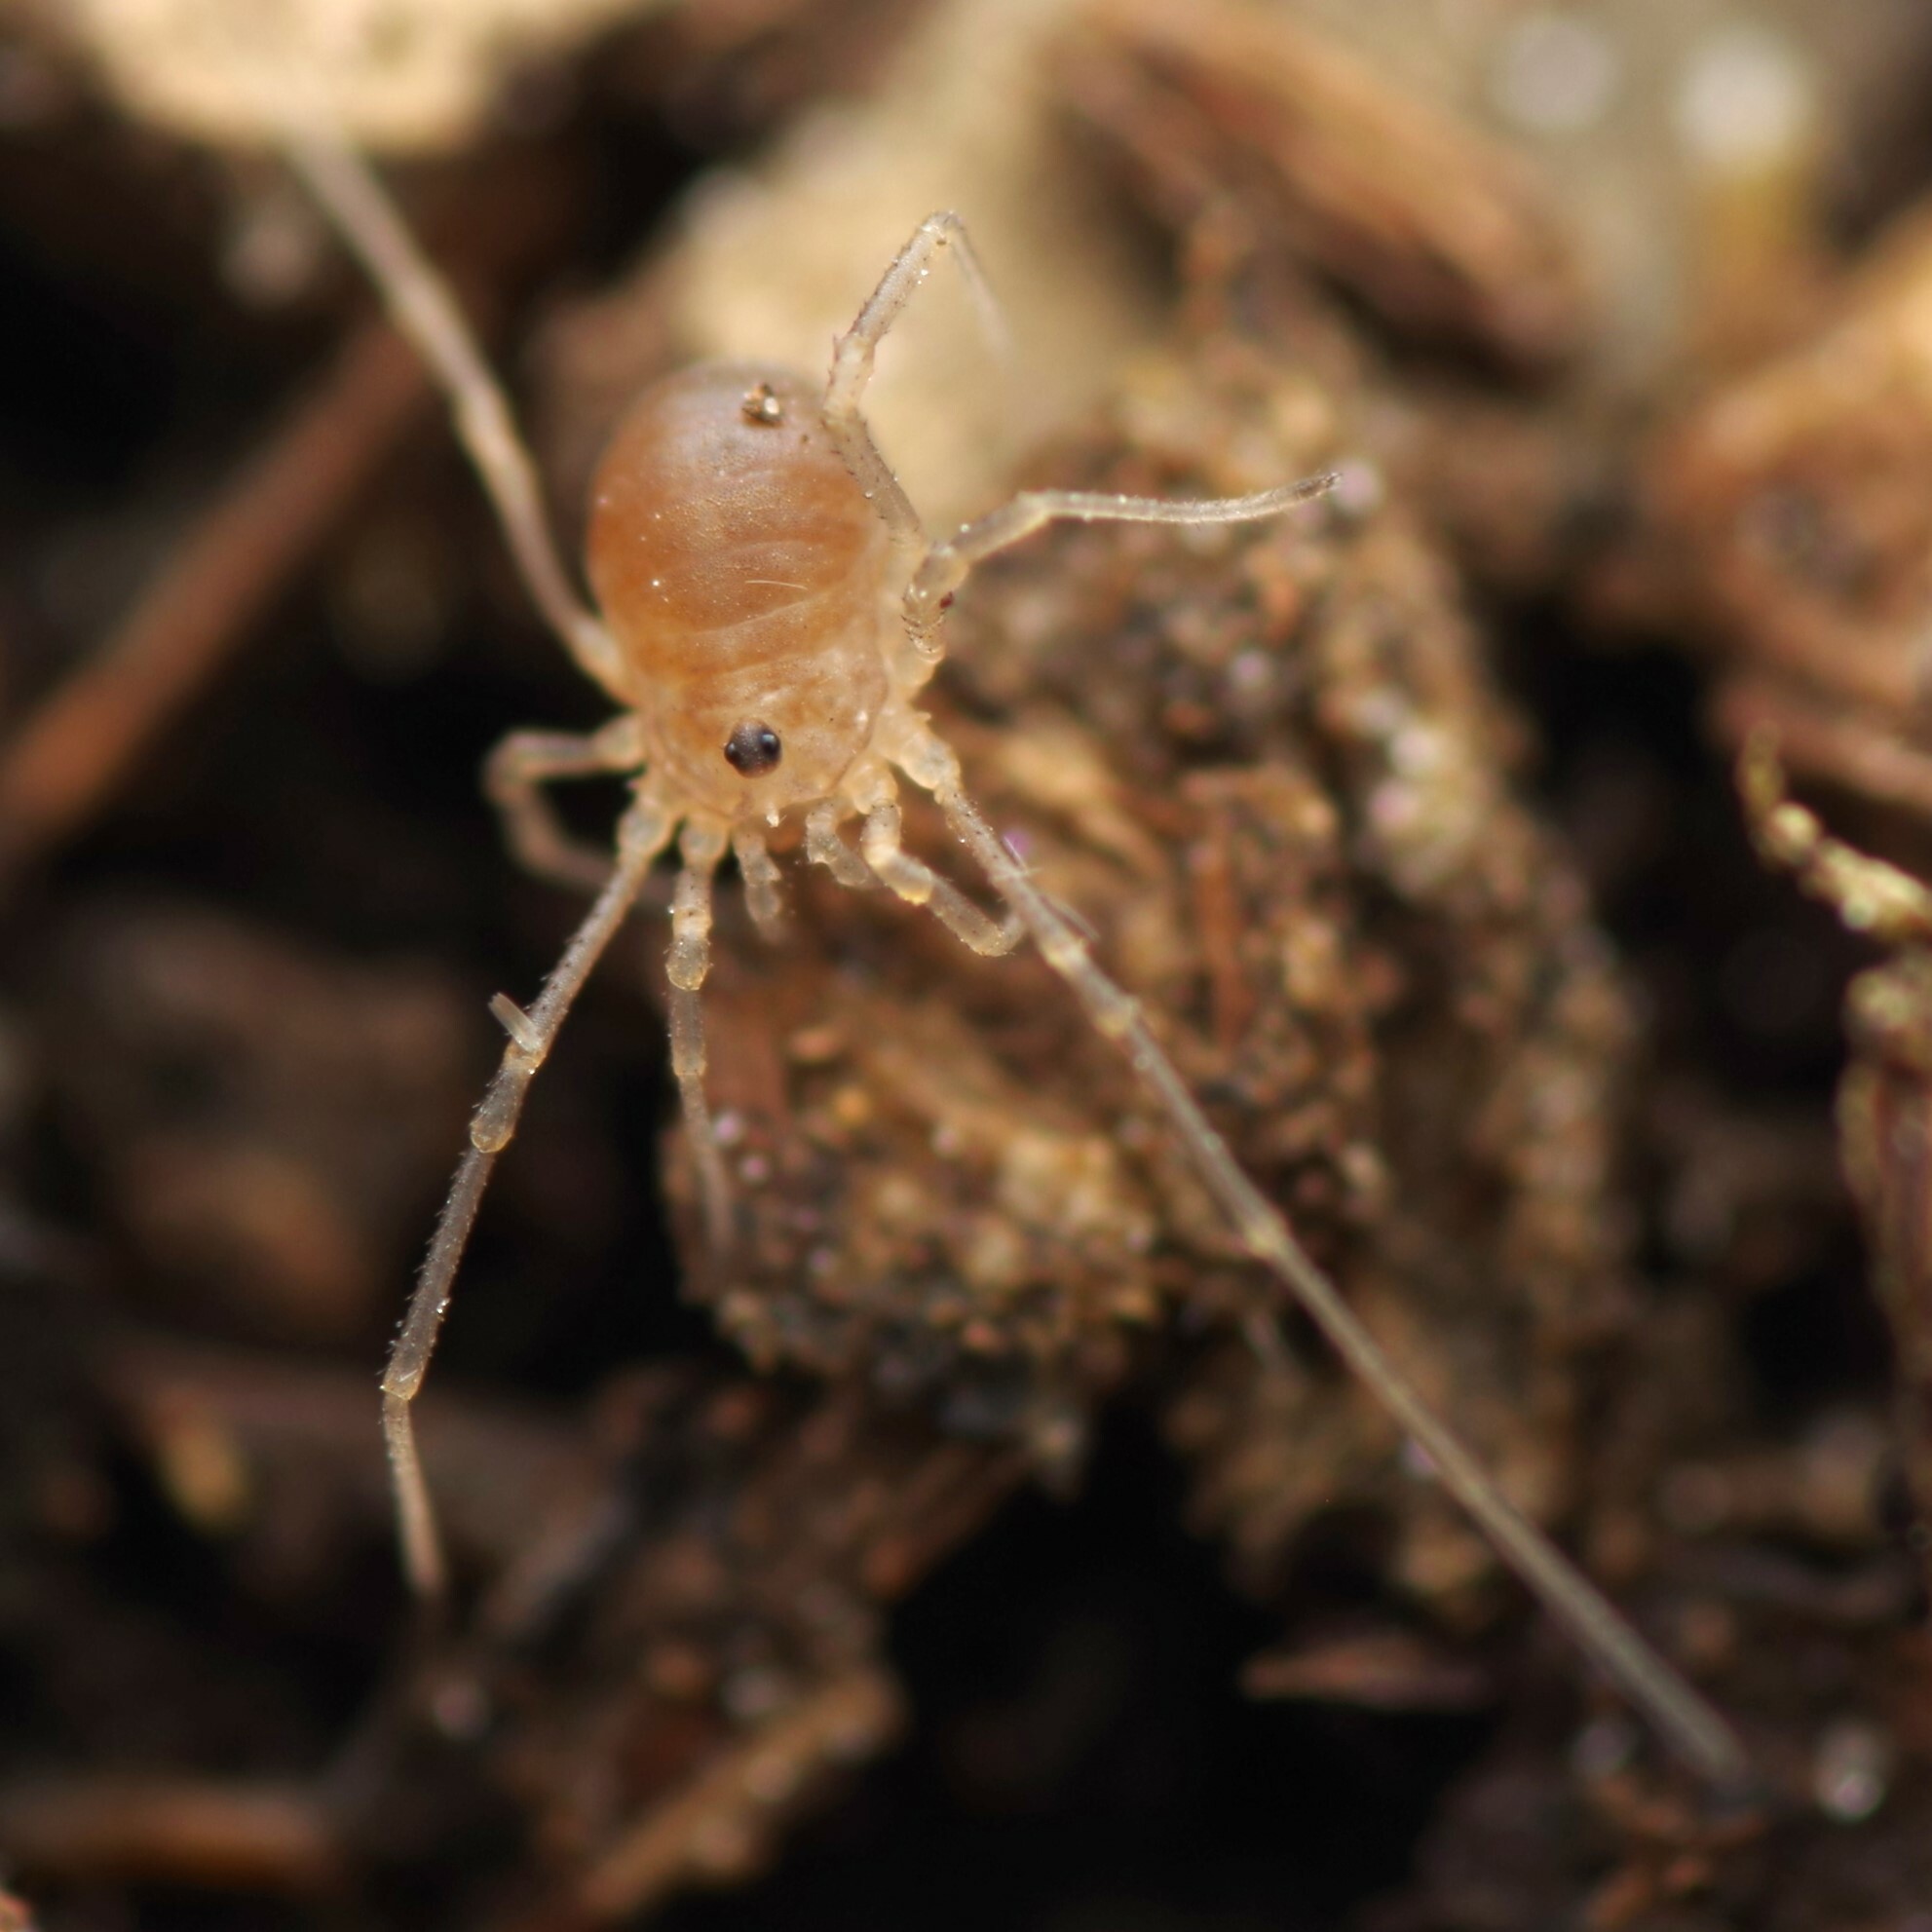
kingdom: Animalia
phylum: Arthropoda
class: Arachnida
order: Opiliones
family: Sclerosomatidae
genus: Homalenotus
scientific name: Homalenotus quadridentatus
